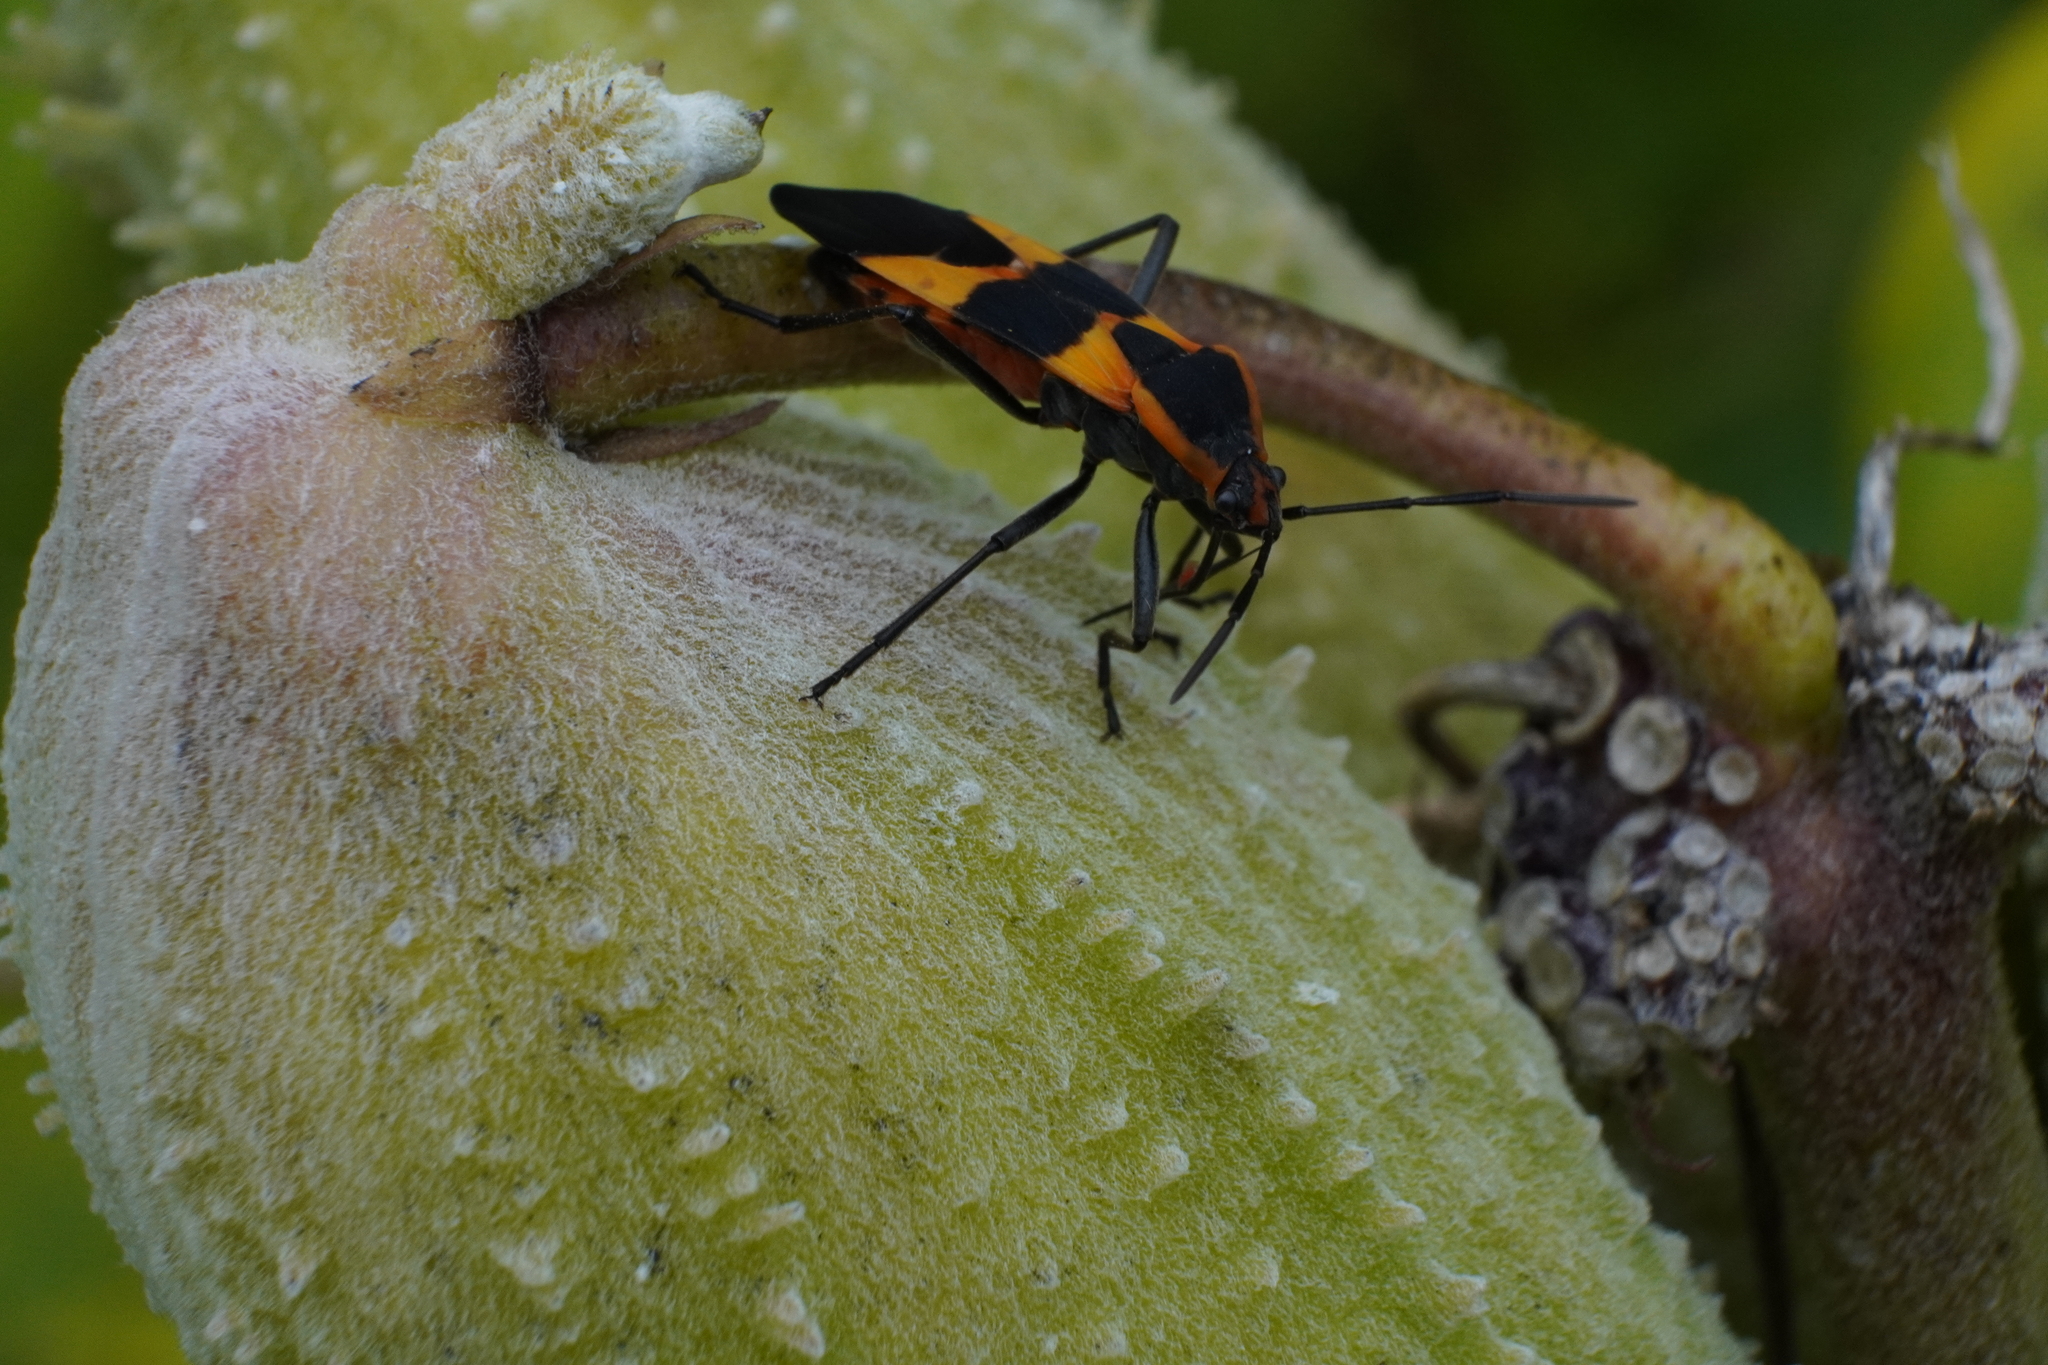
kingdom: Animalia
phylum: Arthropoda
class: Insecta
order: Hemiptera
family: Lygaeidae
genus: Oncopeltus
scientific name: Oncopeltus fasciatus
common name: Large milkweed bug
